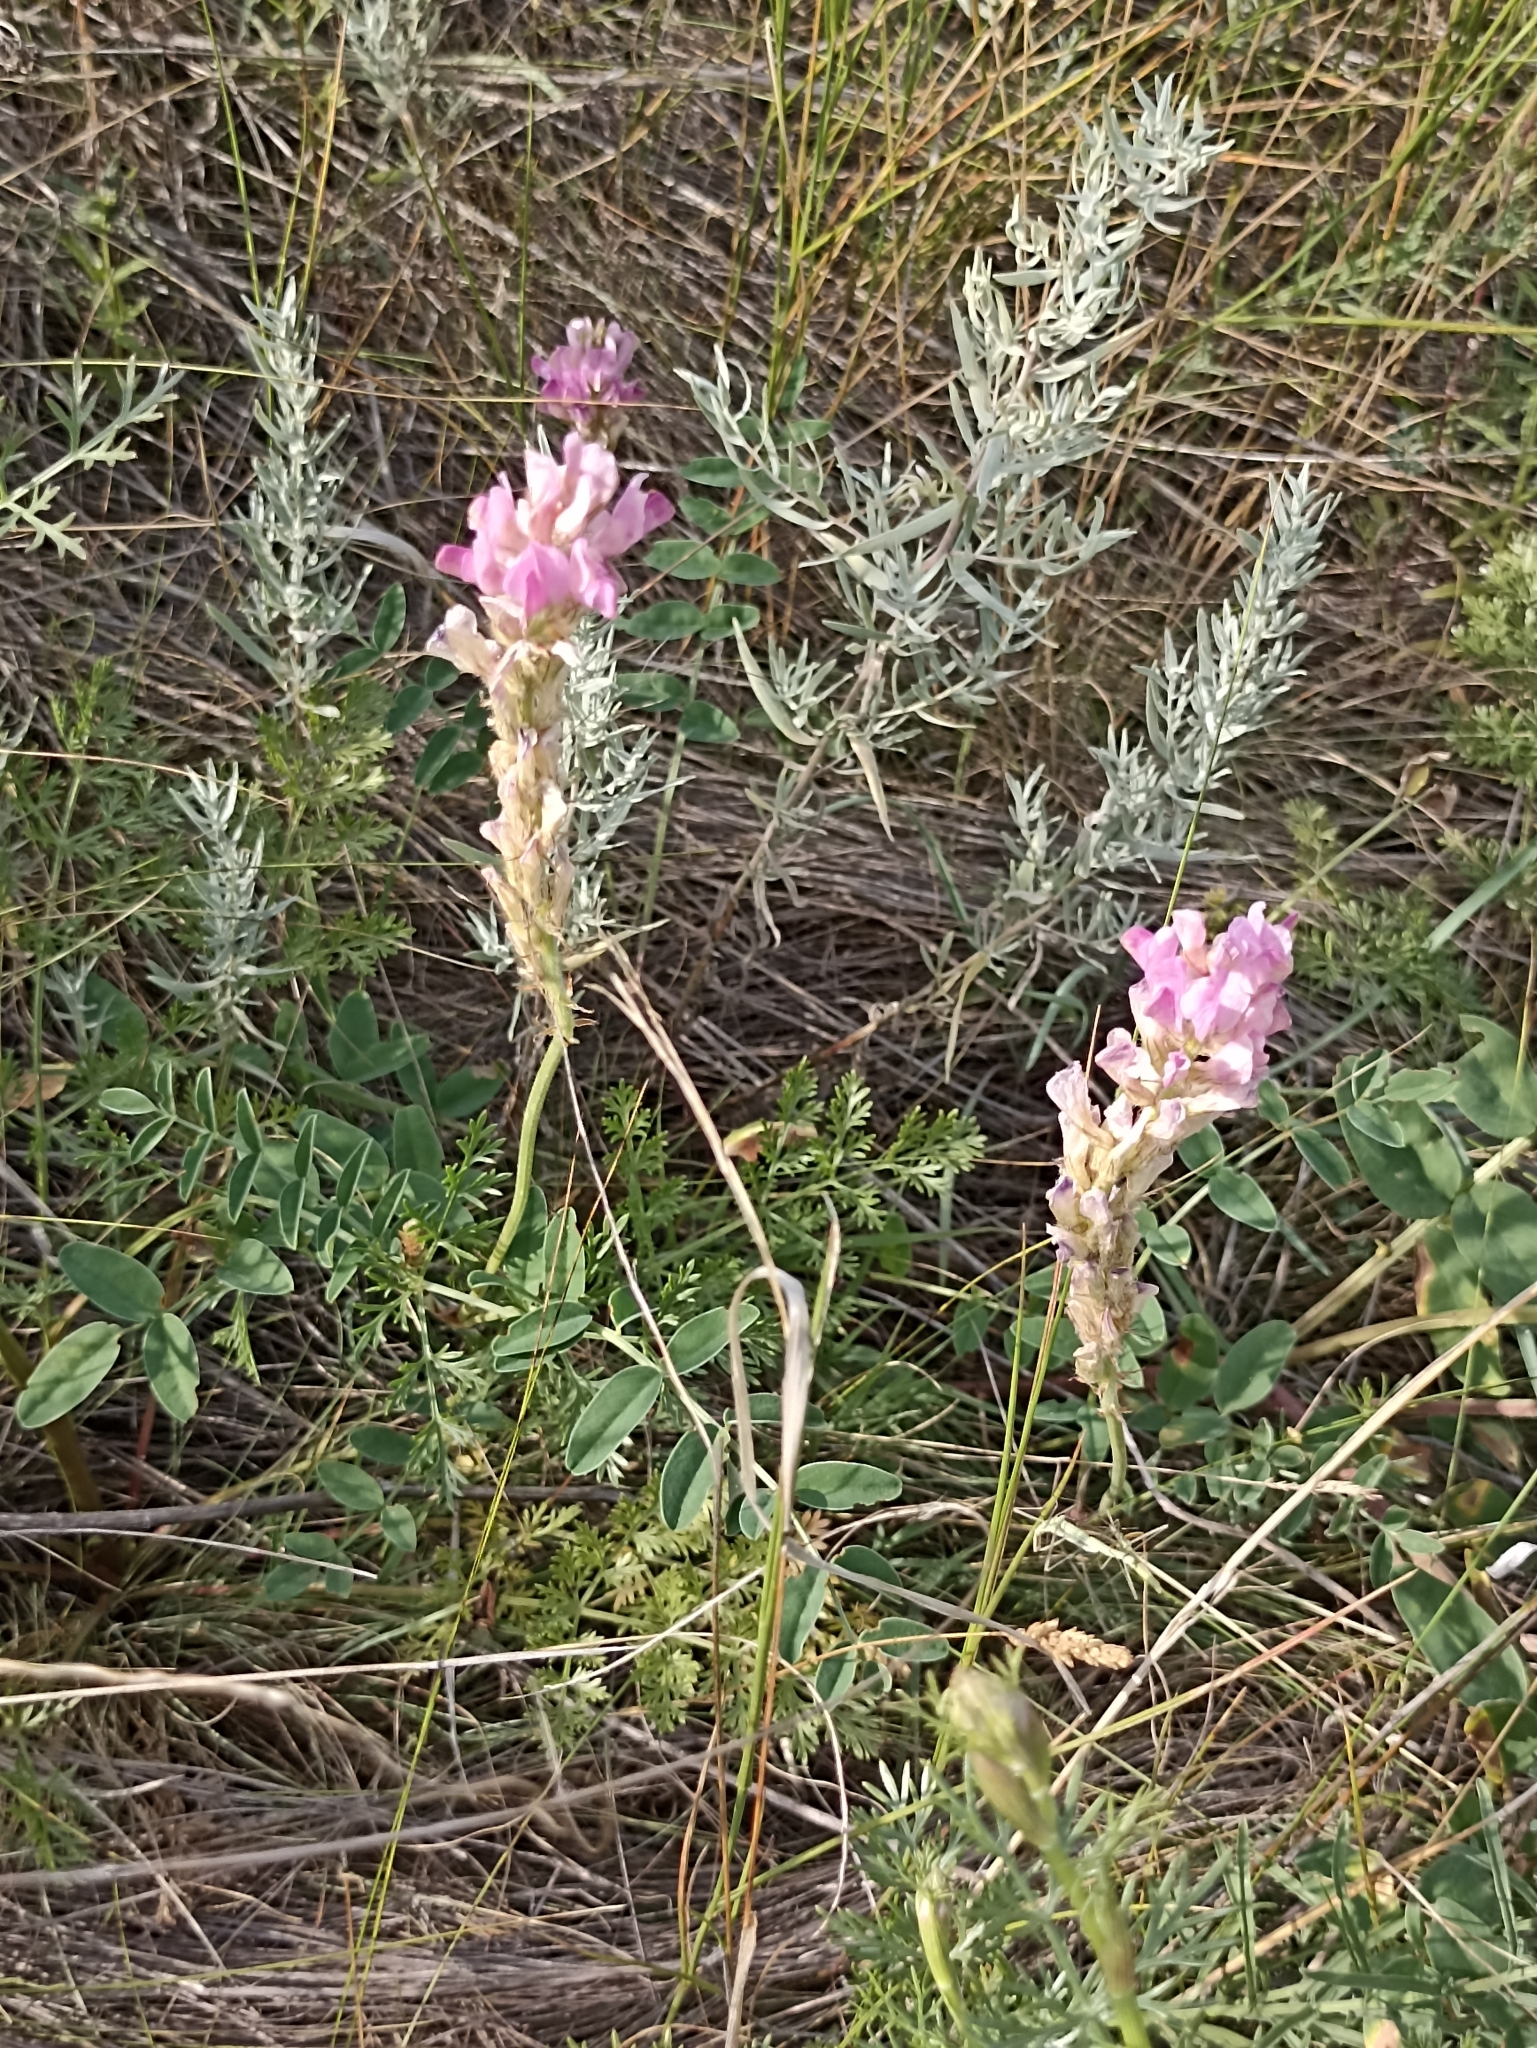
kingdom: Plantae
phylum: Tracheophyta
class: Magnoliopsida
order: Fabales
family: Fabaceae
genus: Hedysarum
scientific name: Hedysarum gmelinii
